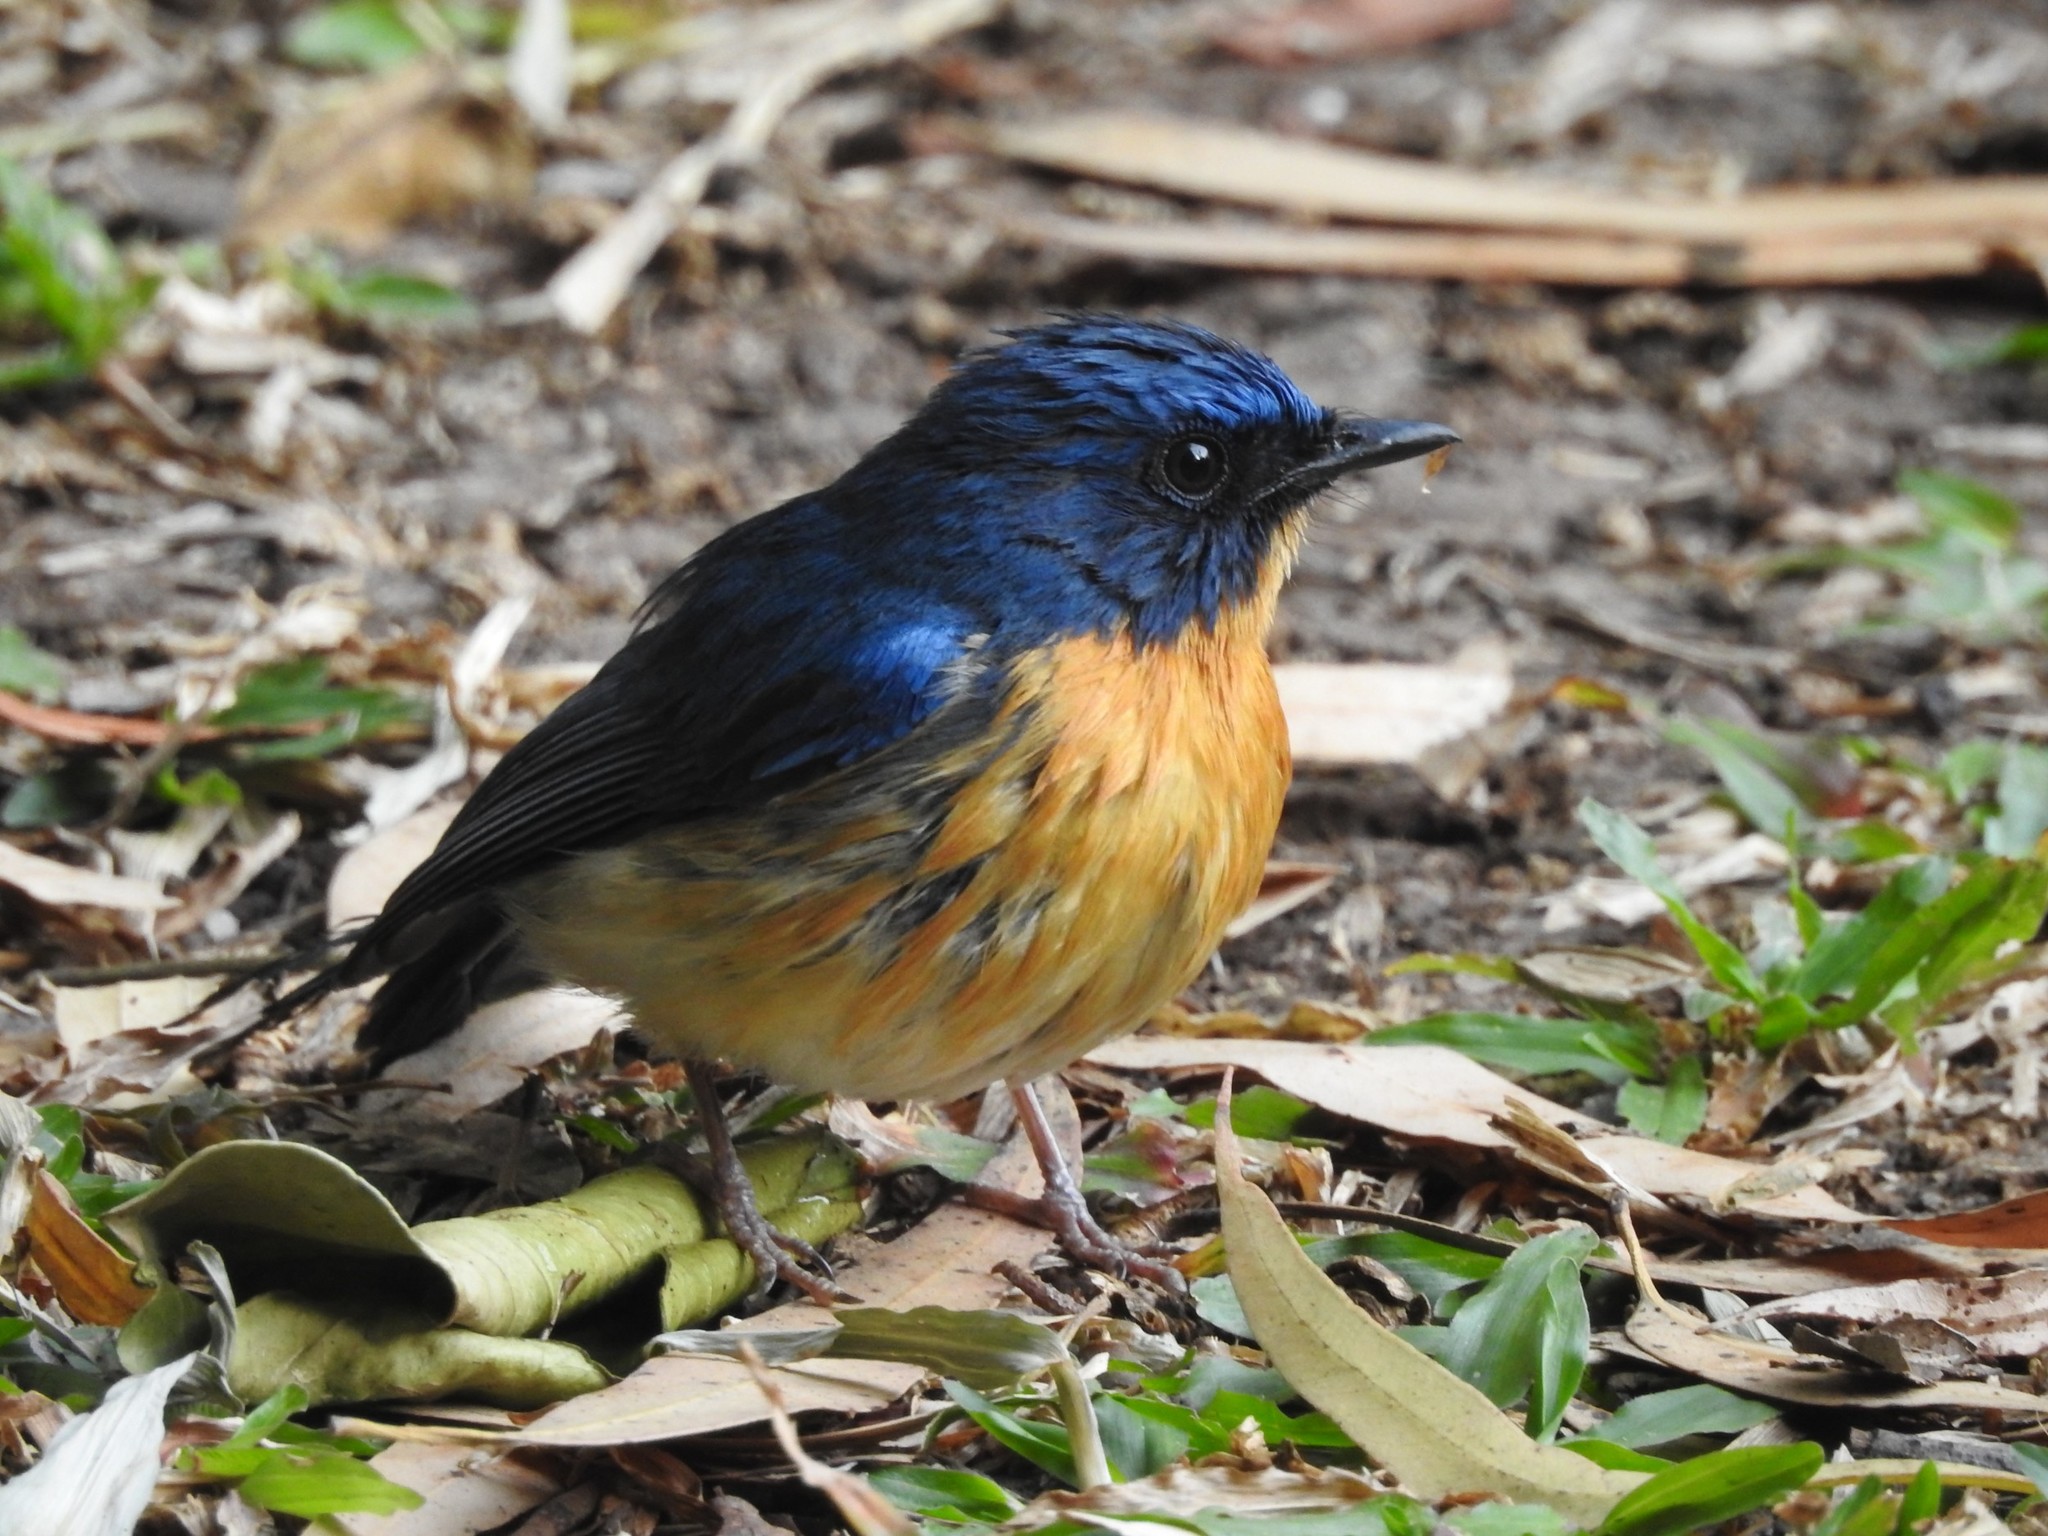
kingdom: Animalia
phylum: Chordata
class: Aves
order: Passeriformes
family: Muscicapidae
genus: Cyornis
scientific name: Cyornis tickelliae
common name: Tickell's blue flycatcher
